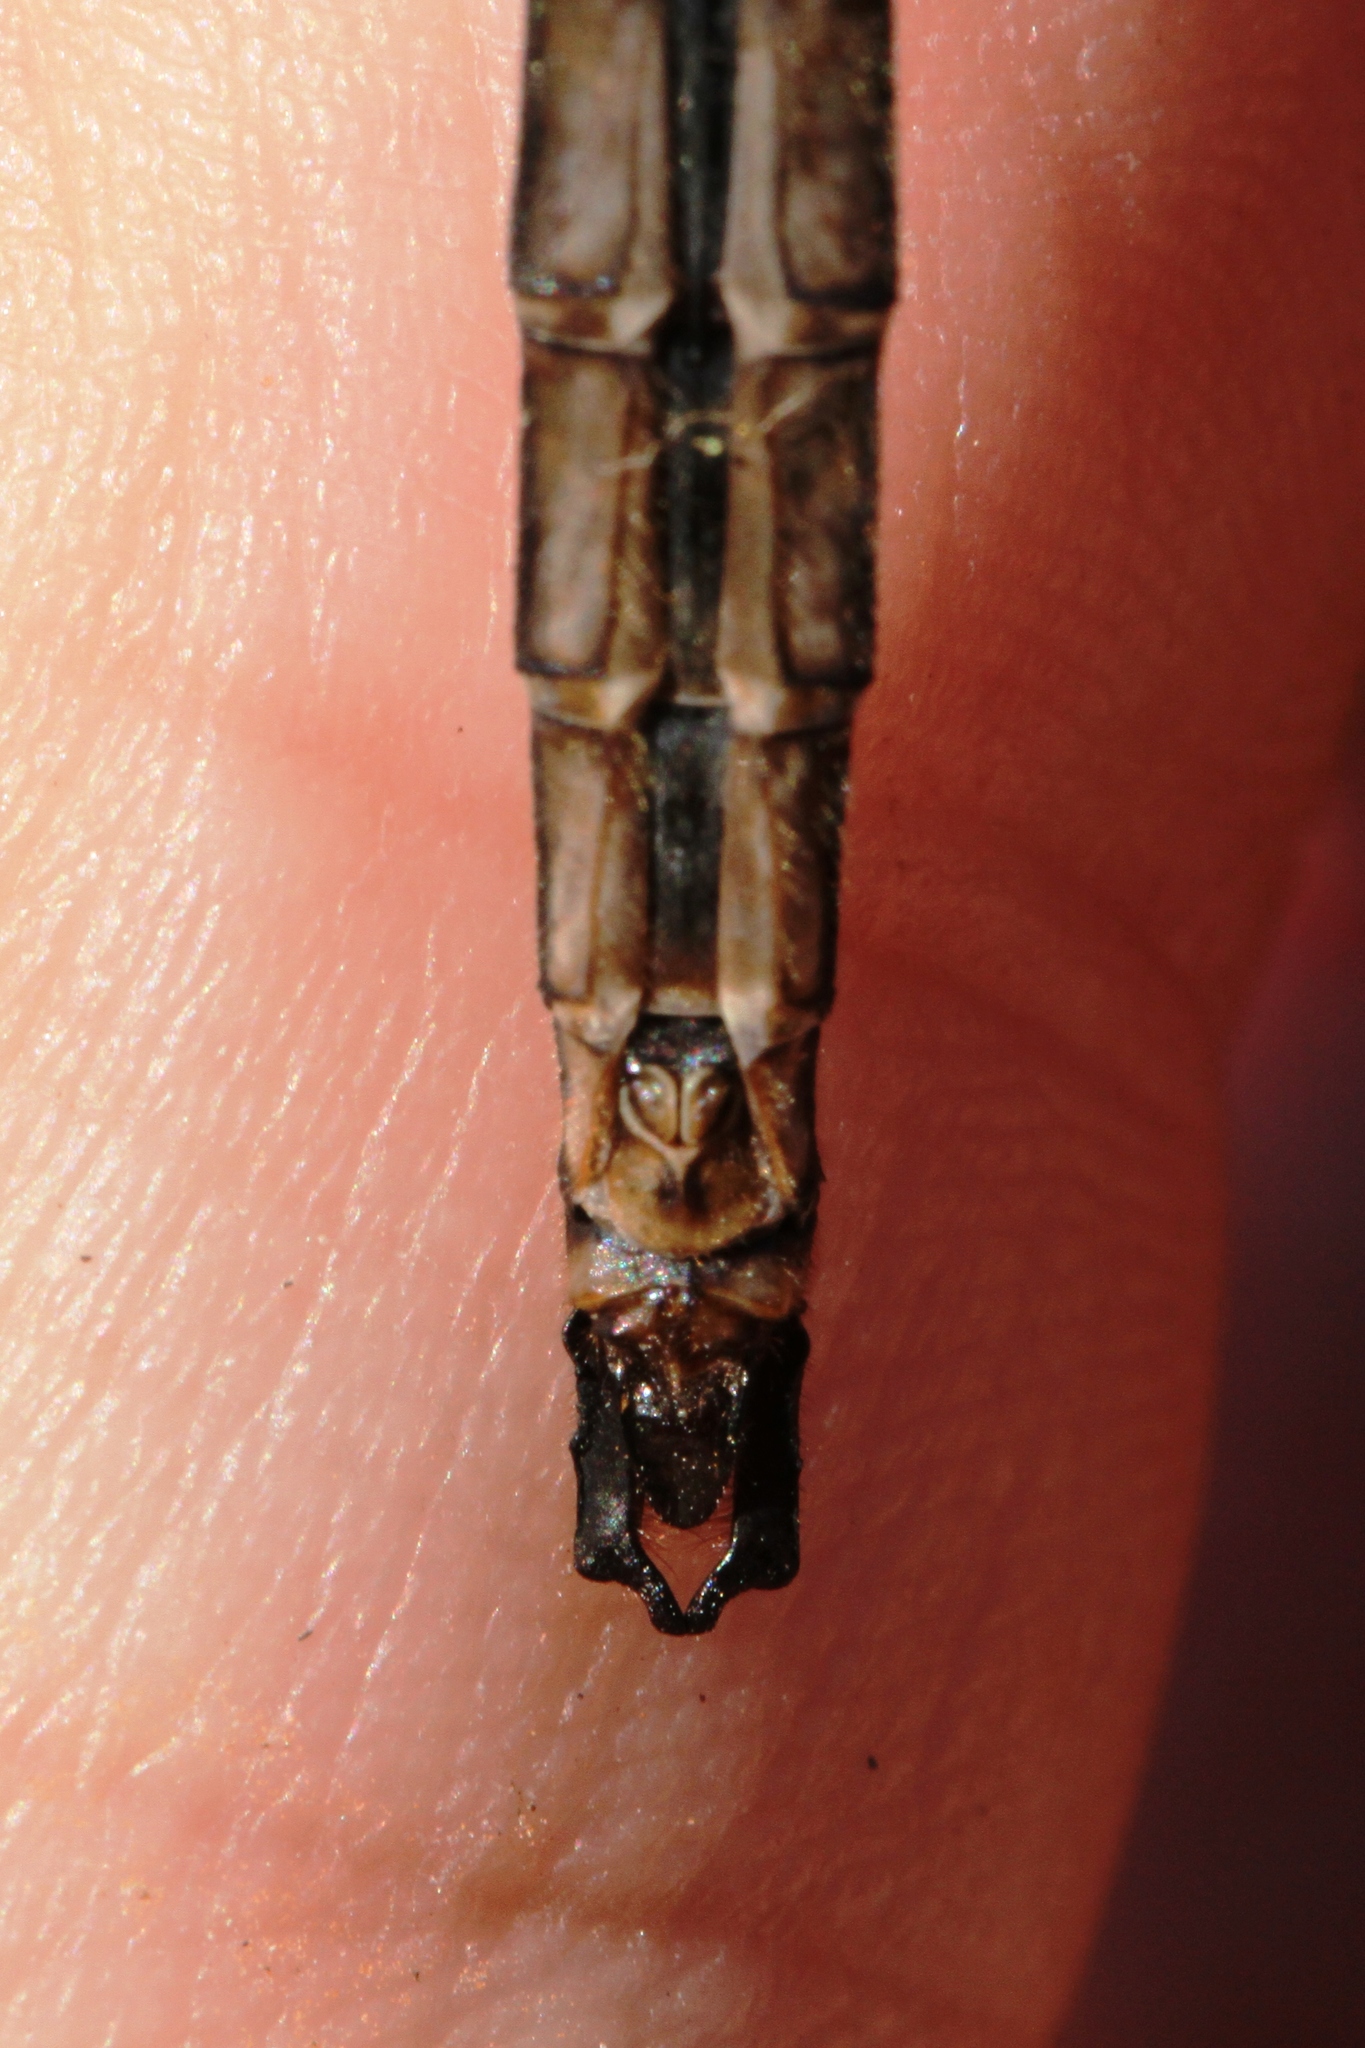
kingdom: Animalia
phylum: Arthropoda
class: Insecta
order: Odonata
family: Corduliidae
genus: Somatochlora
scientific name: Somatochlora albicincta
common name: Ringed emerald
